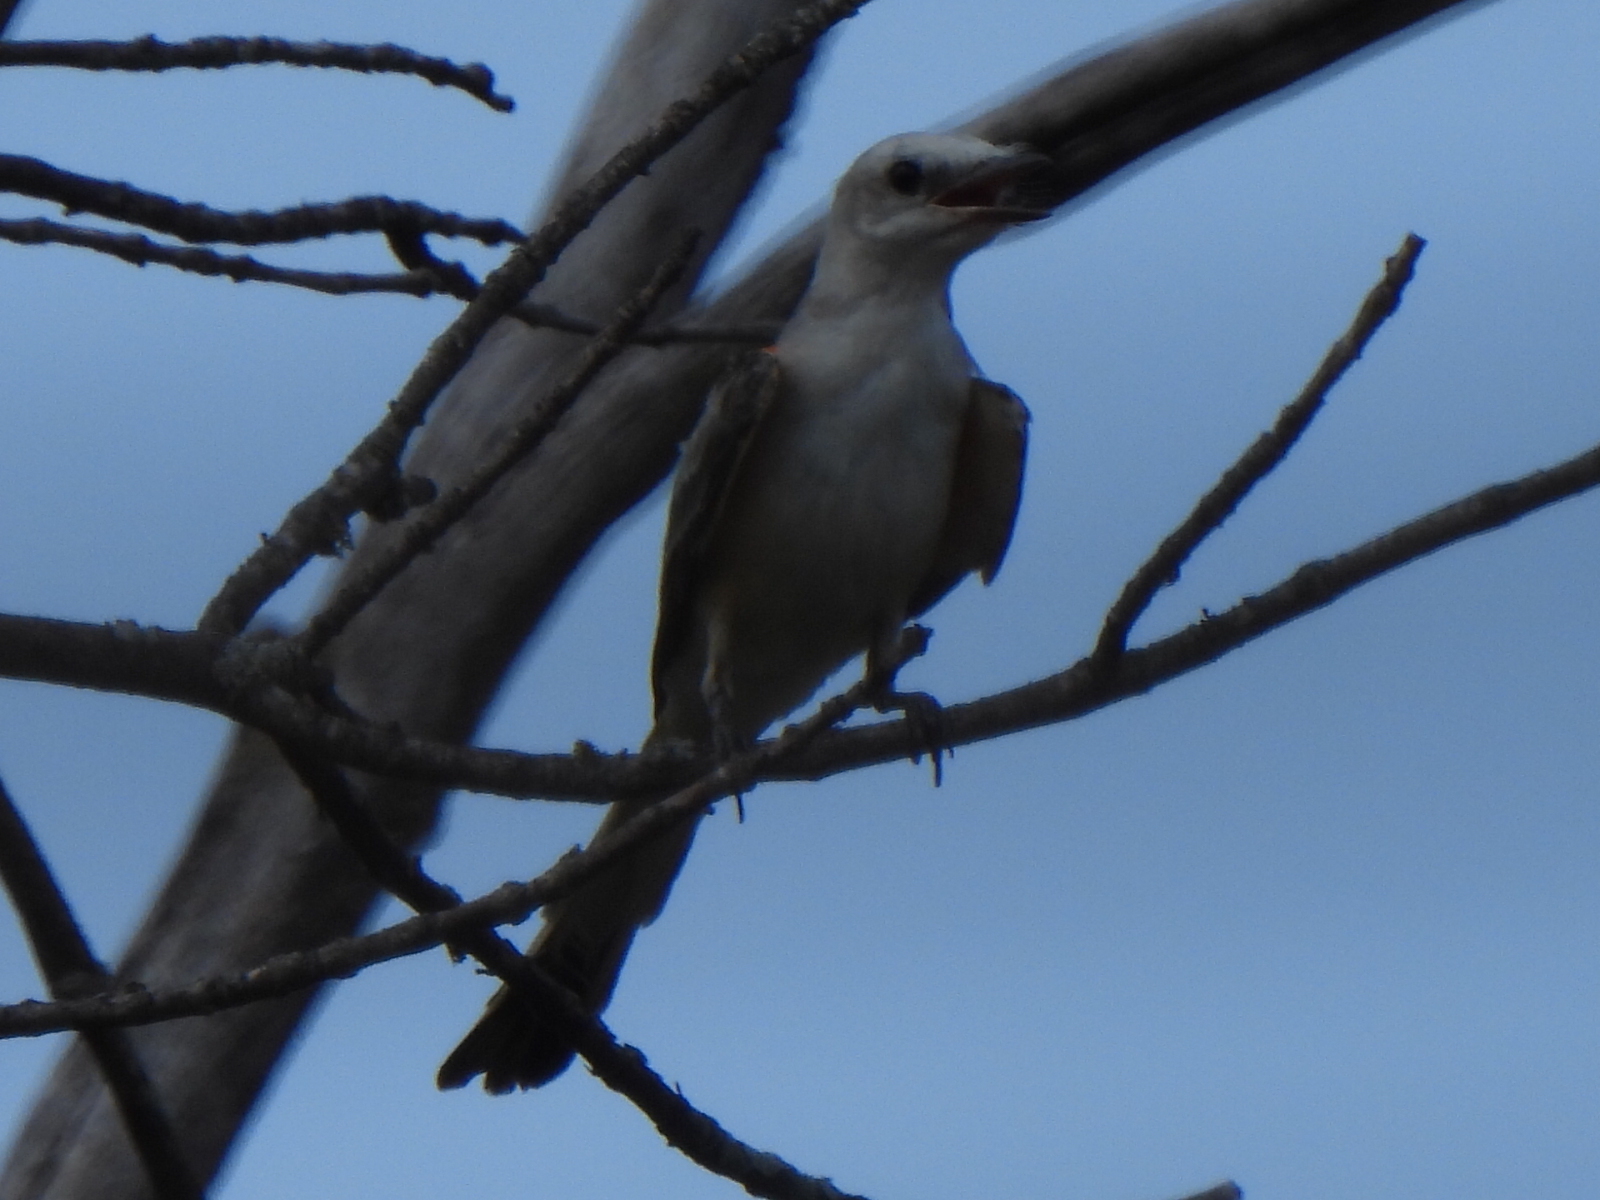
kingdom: Animalia
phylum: Chordata
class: Aves
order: Passeriformes
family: Tyrannidae
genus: Tyrannus
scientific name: Tyrannus forficatus
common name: Scissor-tailed flycatcher
